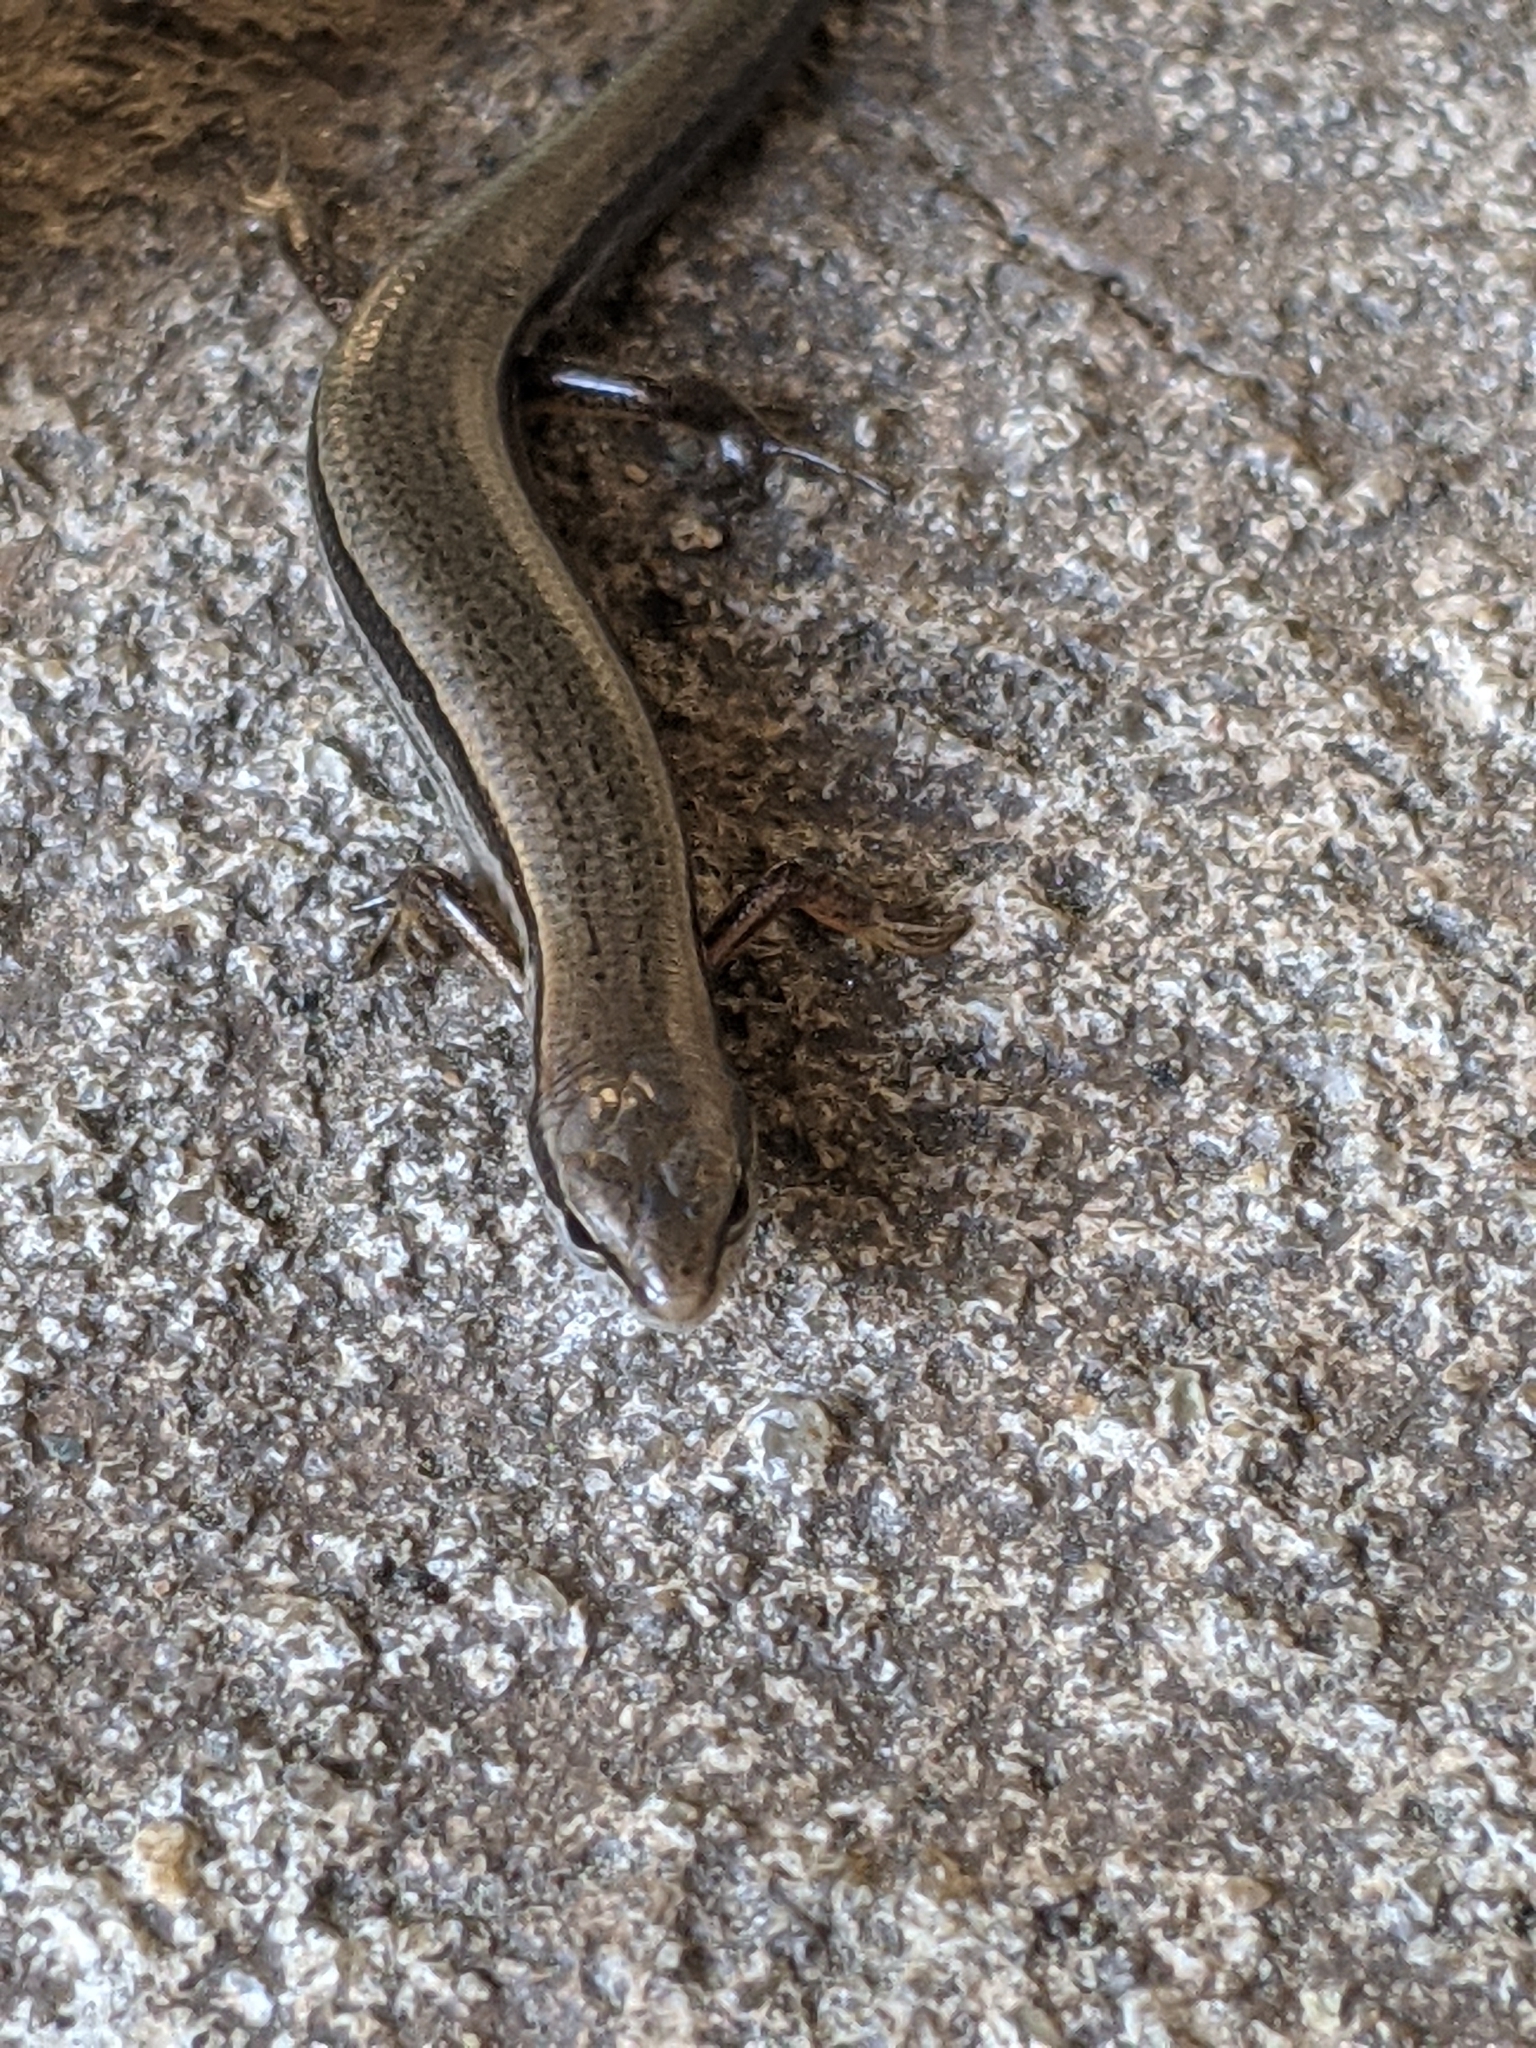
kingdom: Animalia
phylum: Chordata
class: Squamata
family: Scincidae
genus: Scincella
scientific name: Scincella lateralis
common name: Ground skink
